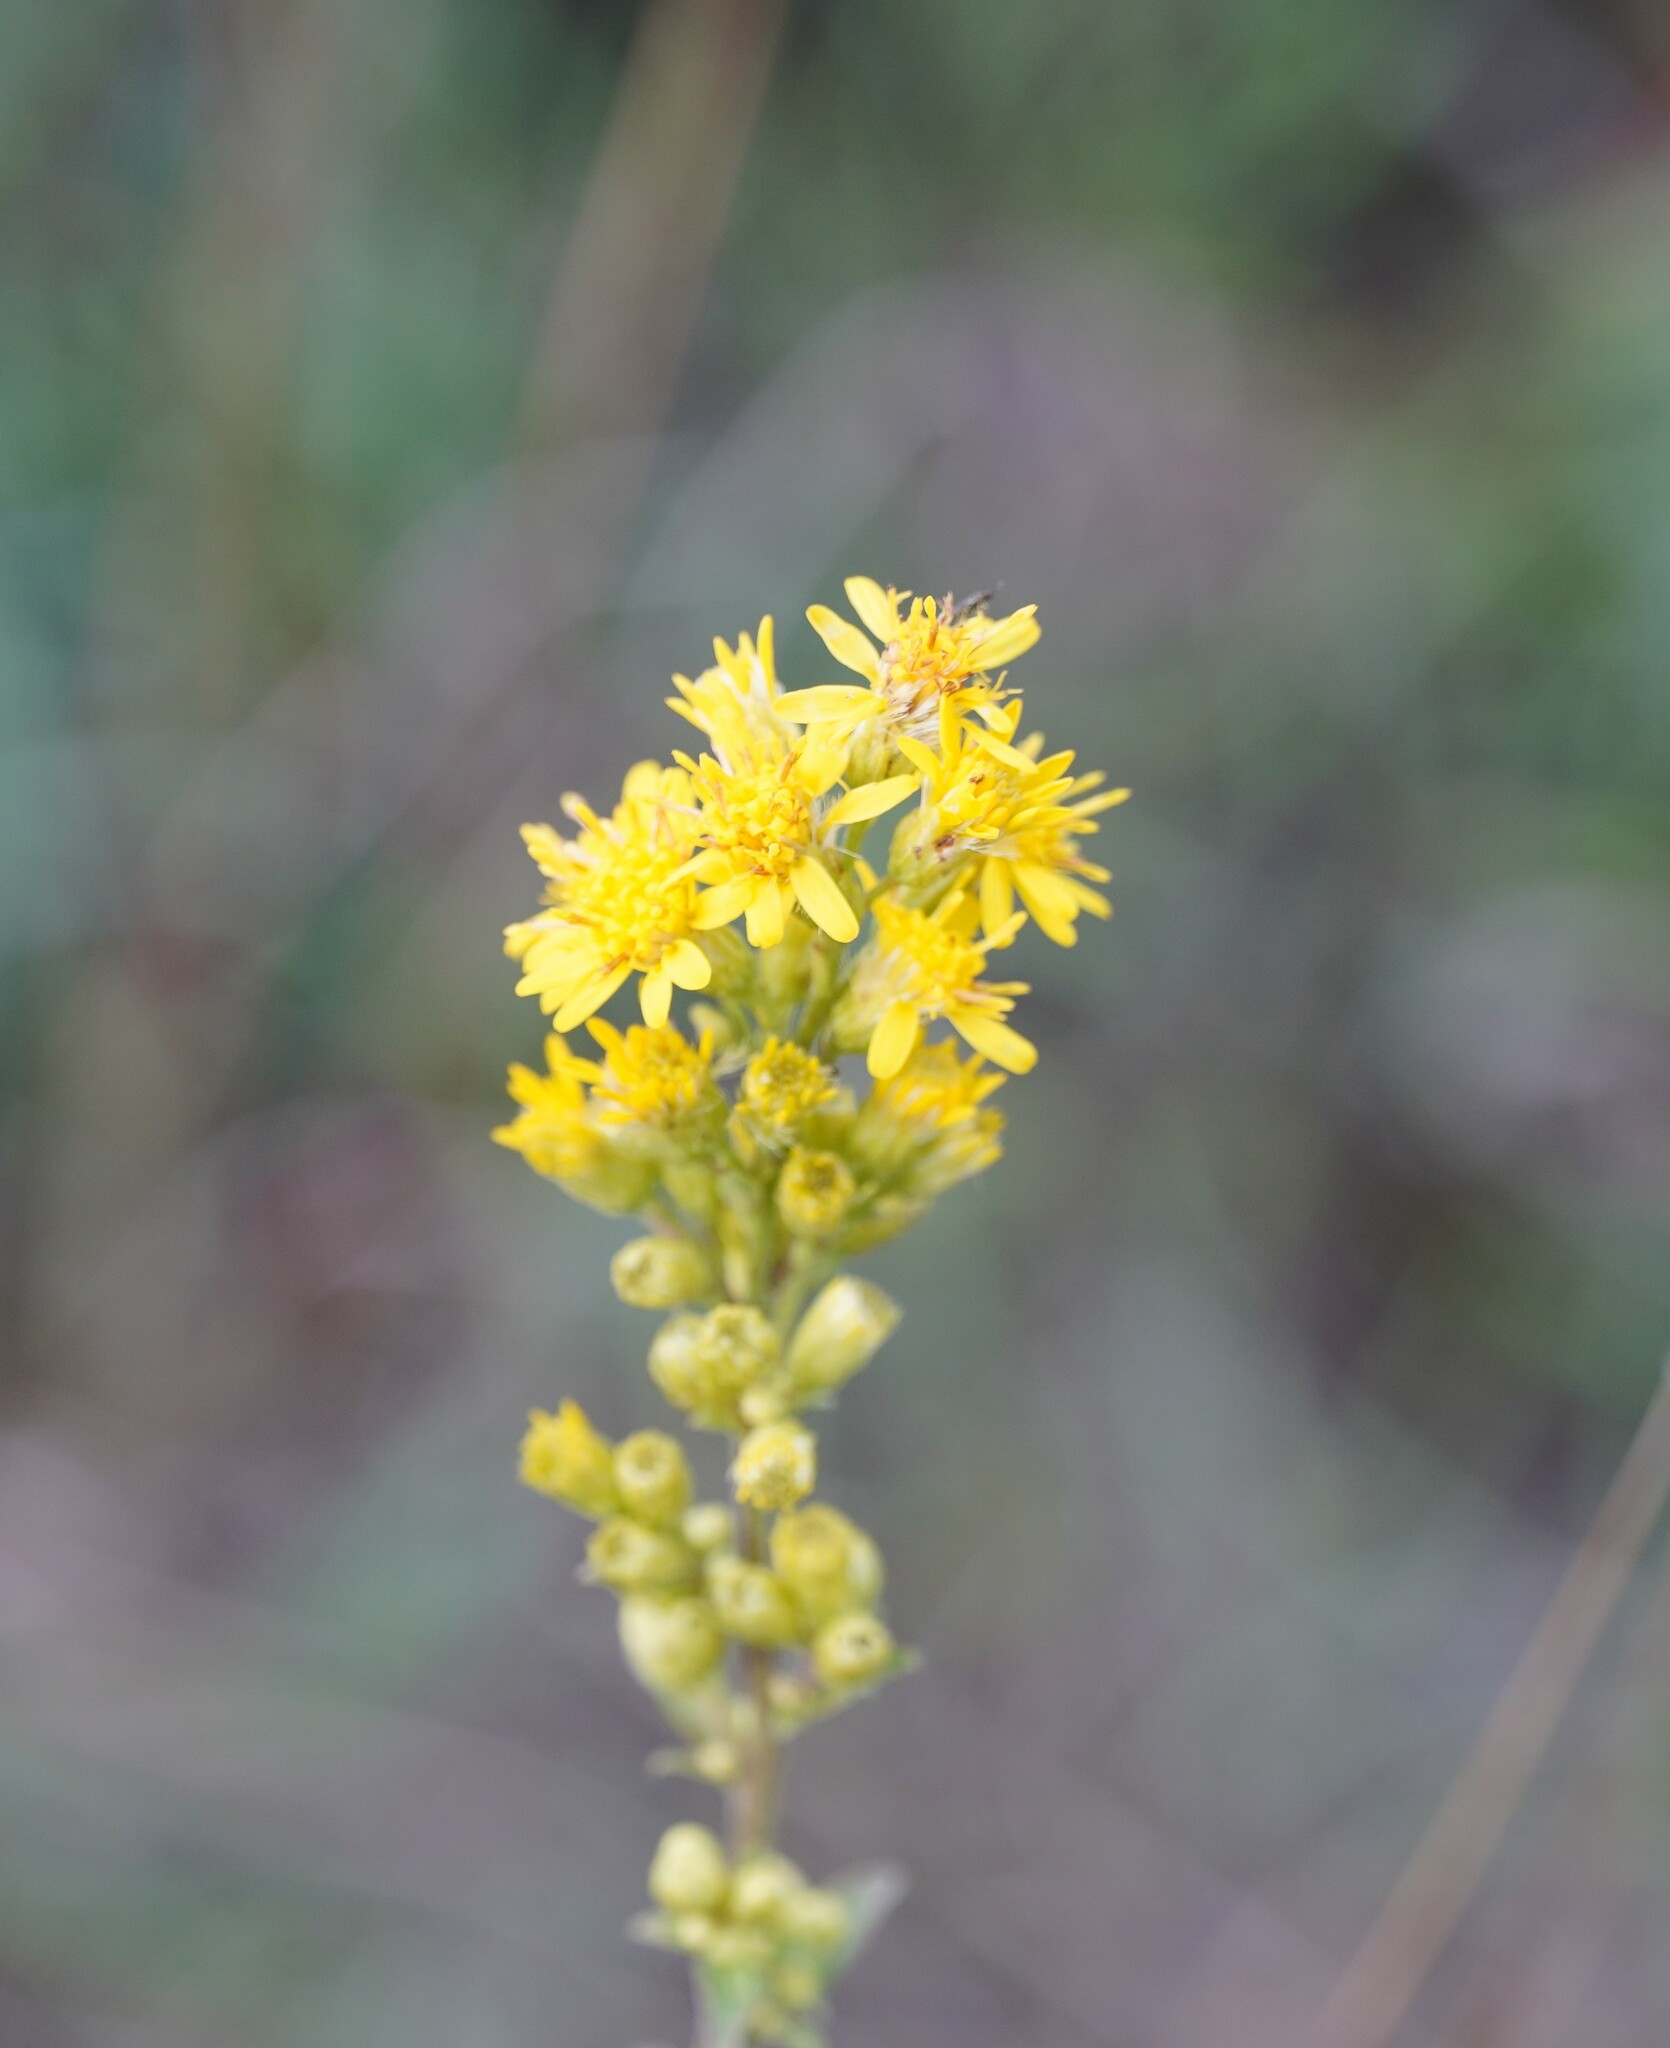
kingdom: Plantae
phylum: Tracheophyta
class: Magnoliopsida
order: Asterales
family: Asteraceae
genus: Solidago
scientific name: Solidago virgaurea
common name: Goldenrod
